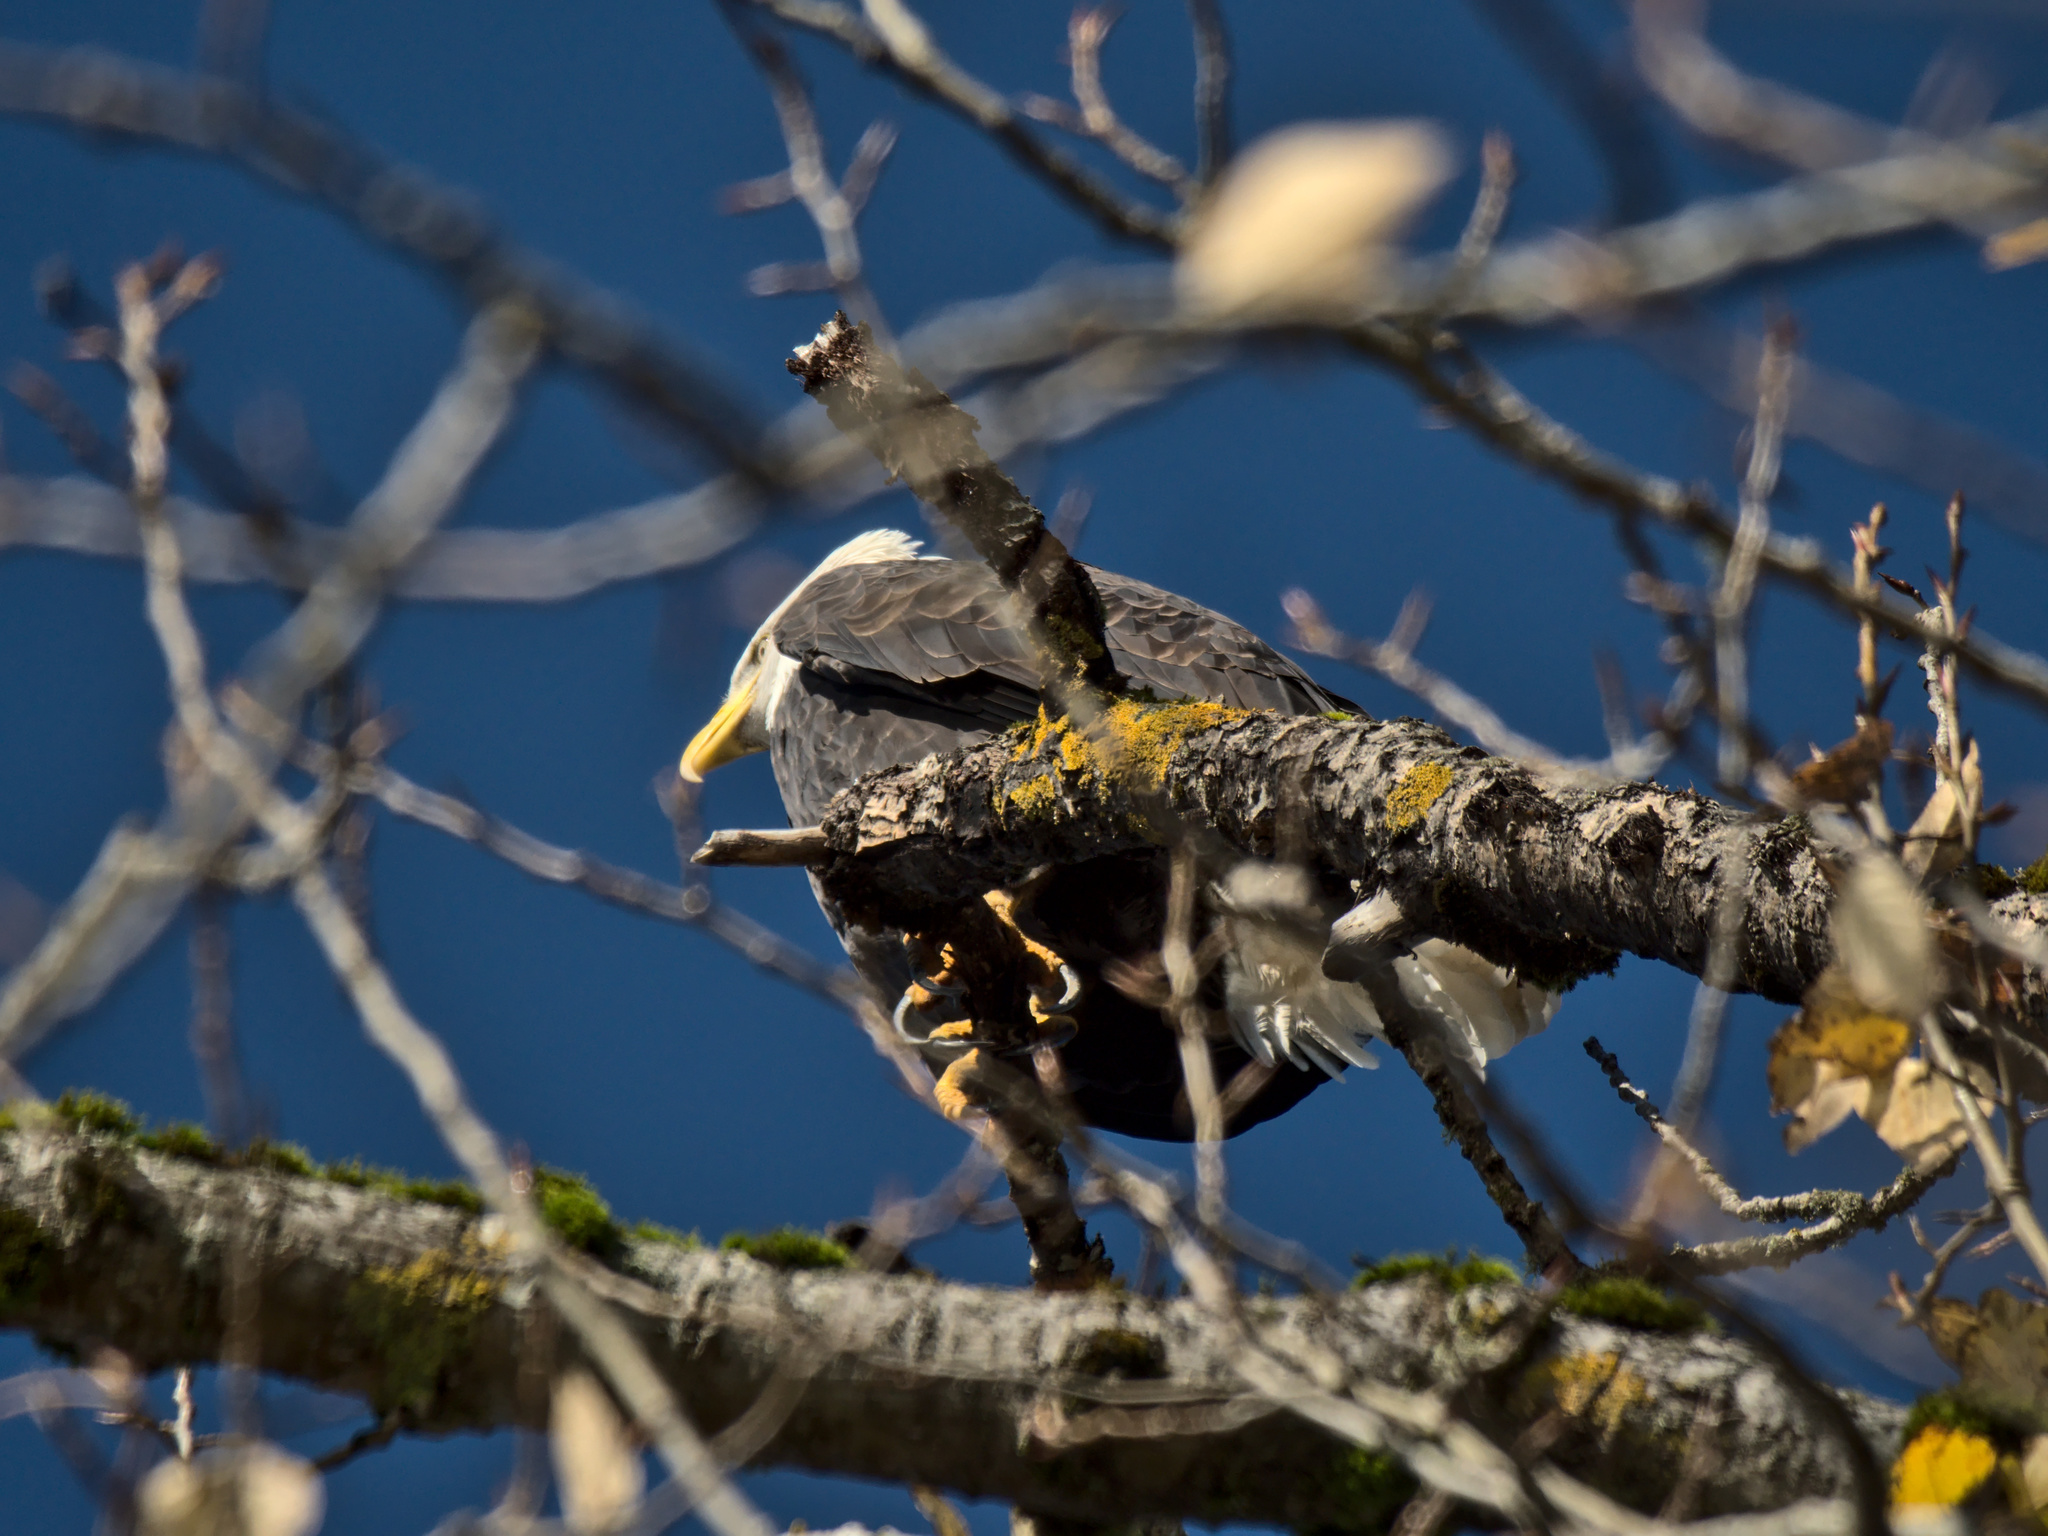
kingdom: Animalia
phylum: Chordata
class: Aves
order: Accipitriformes
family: Accipitridae
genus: Haliaeetus
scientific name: Haliaeetus leucocephalus
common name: Bald eagle
